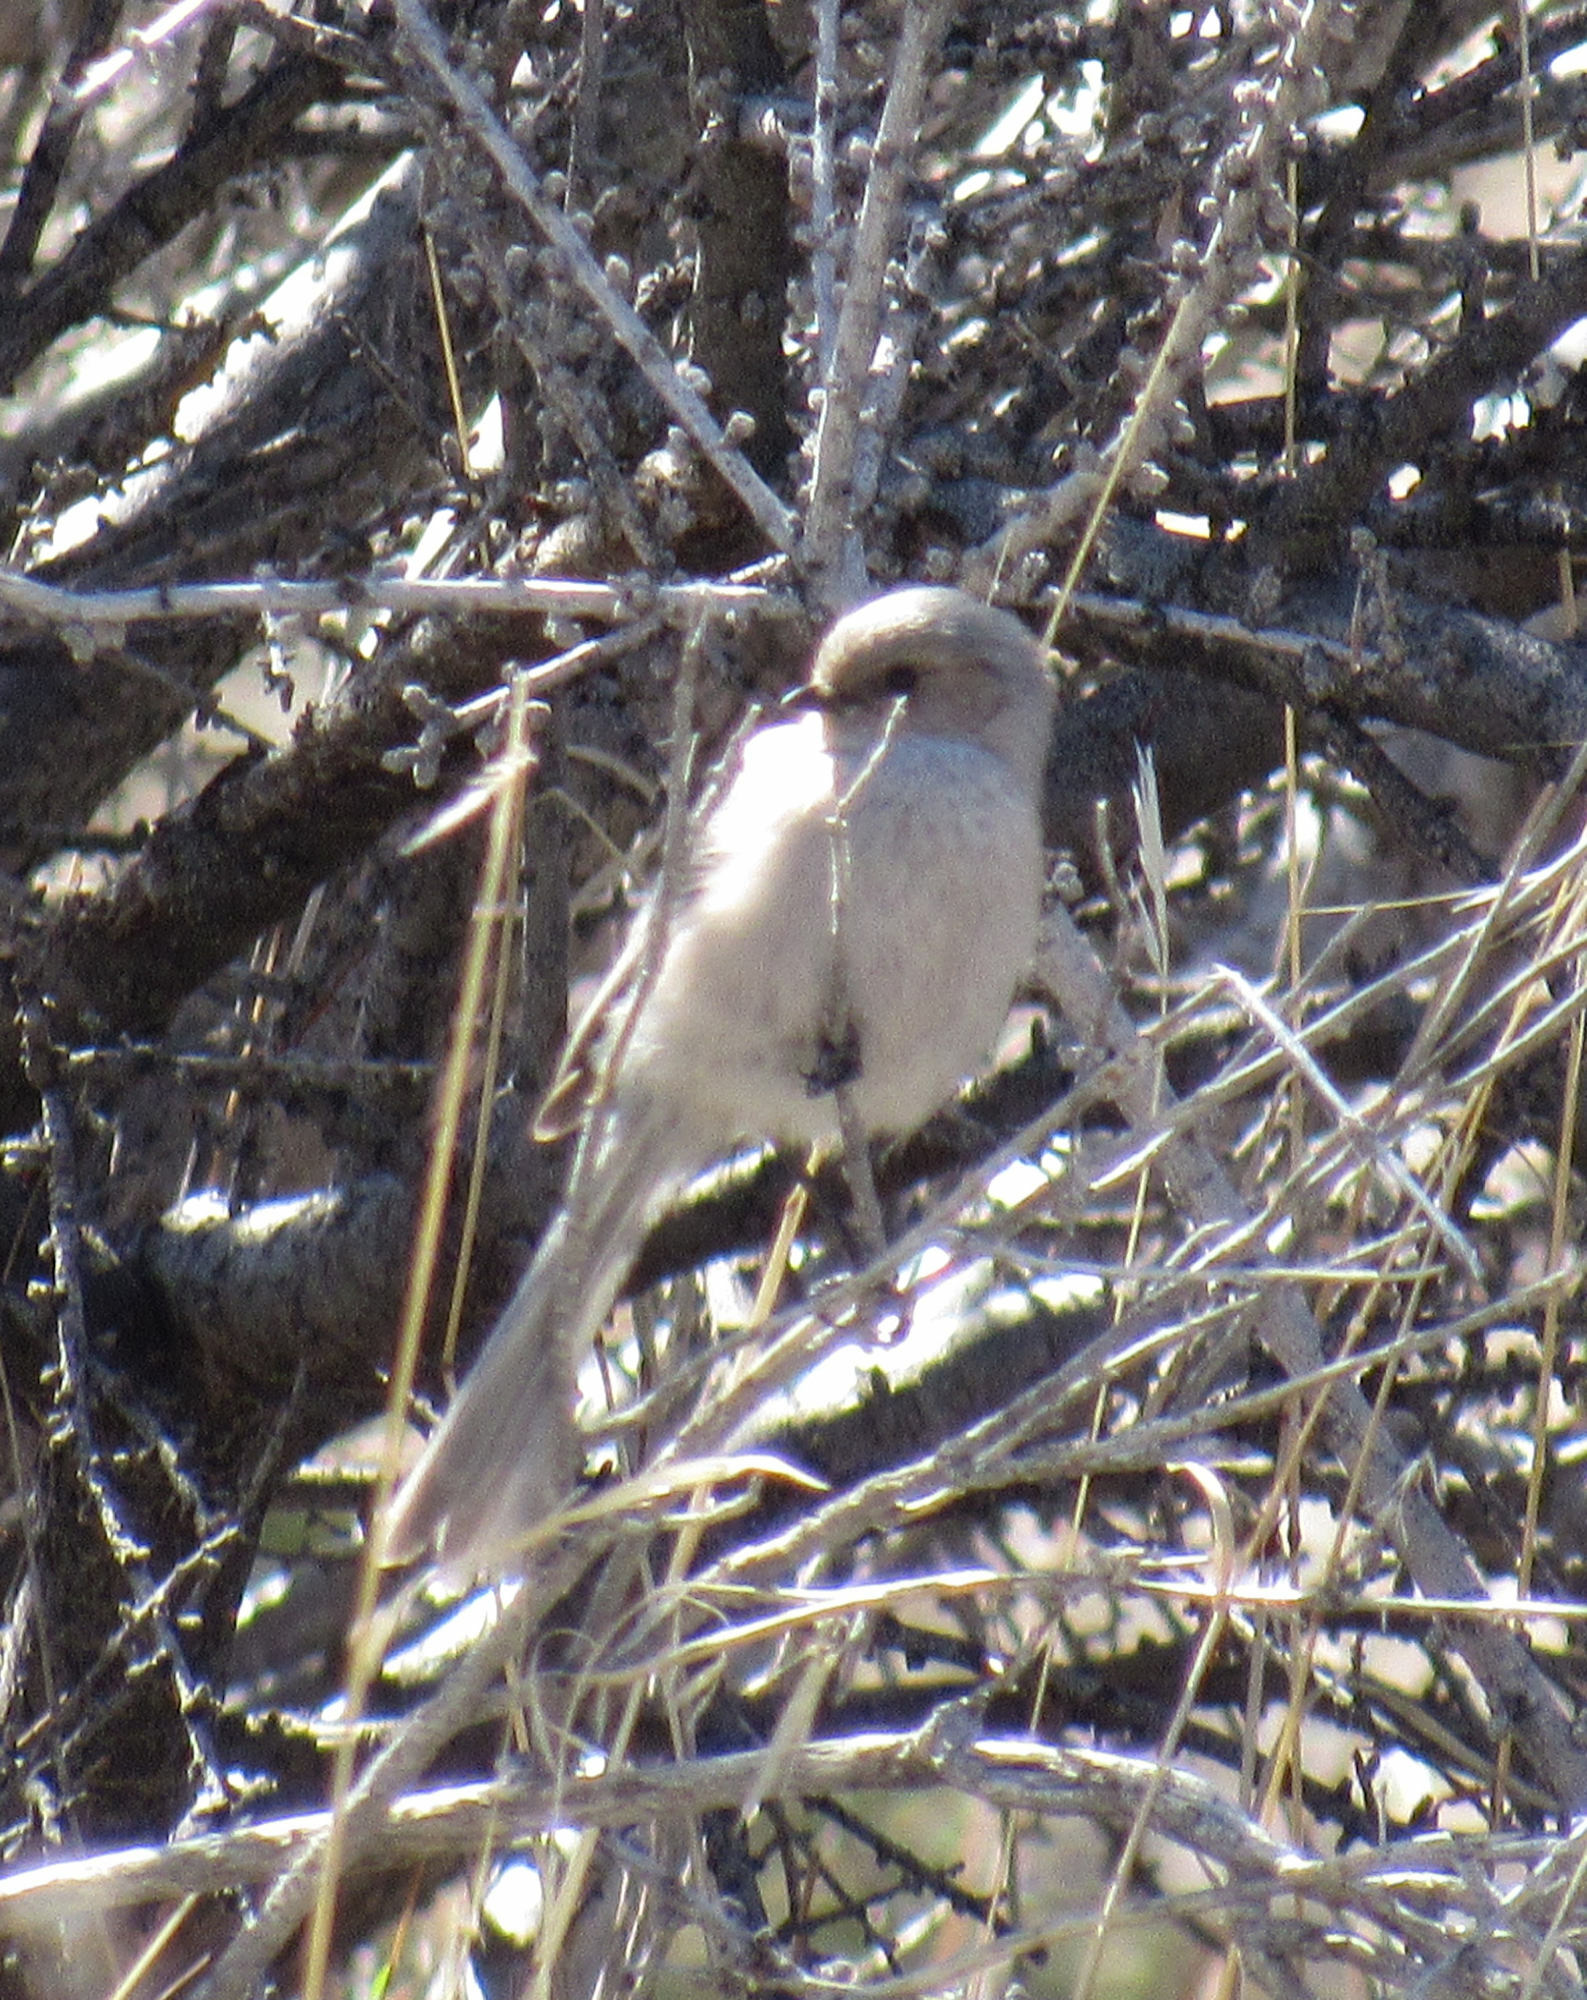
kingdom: Animalia
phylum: Chordata
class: Aves
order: Passeriformes
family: Aegithalidae
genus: Psaltriparus
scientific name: Psaltriparus minimus
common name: American bushtit
